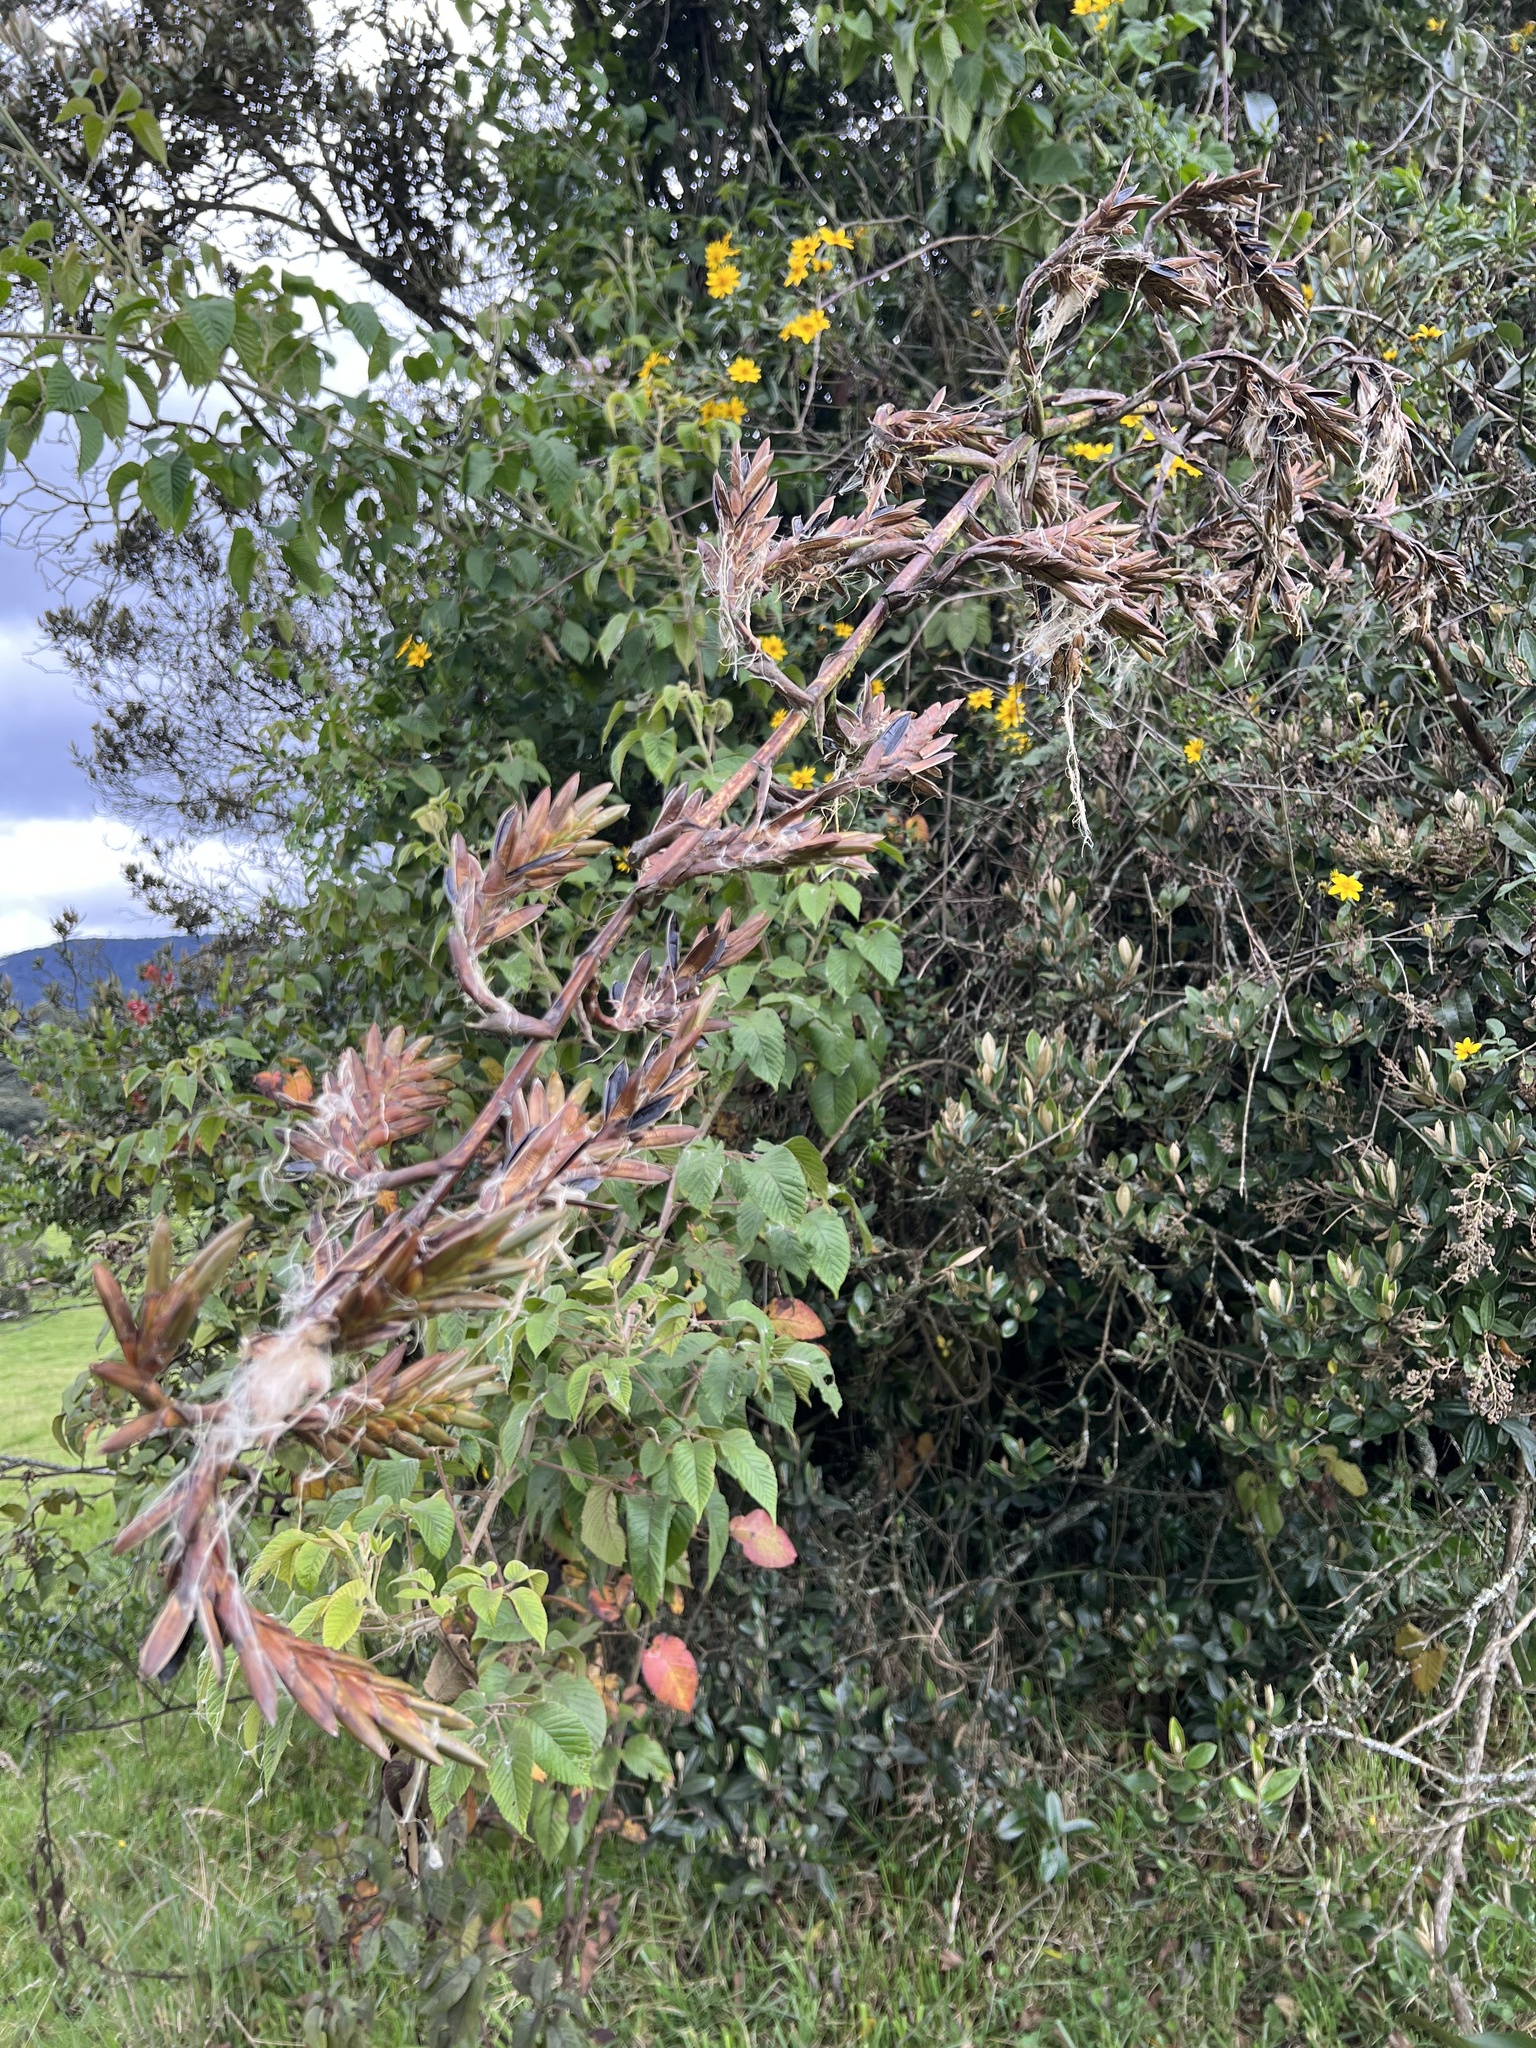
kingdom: Plantae
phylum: Tracheophyta
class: Liliopsida
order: Poales
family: Bromeliaceae
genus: Tillandsia
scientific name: Tillandsia denudata
